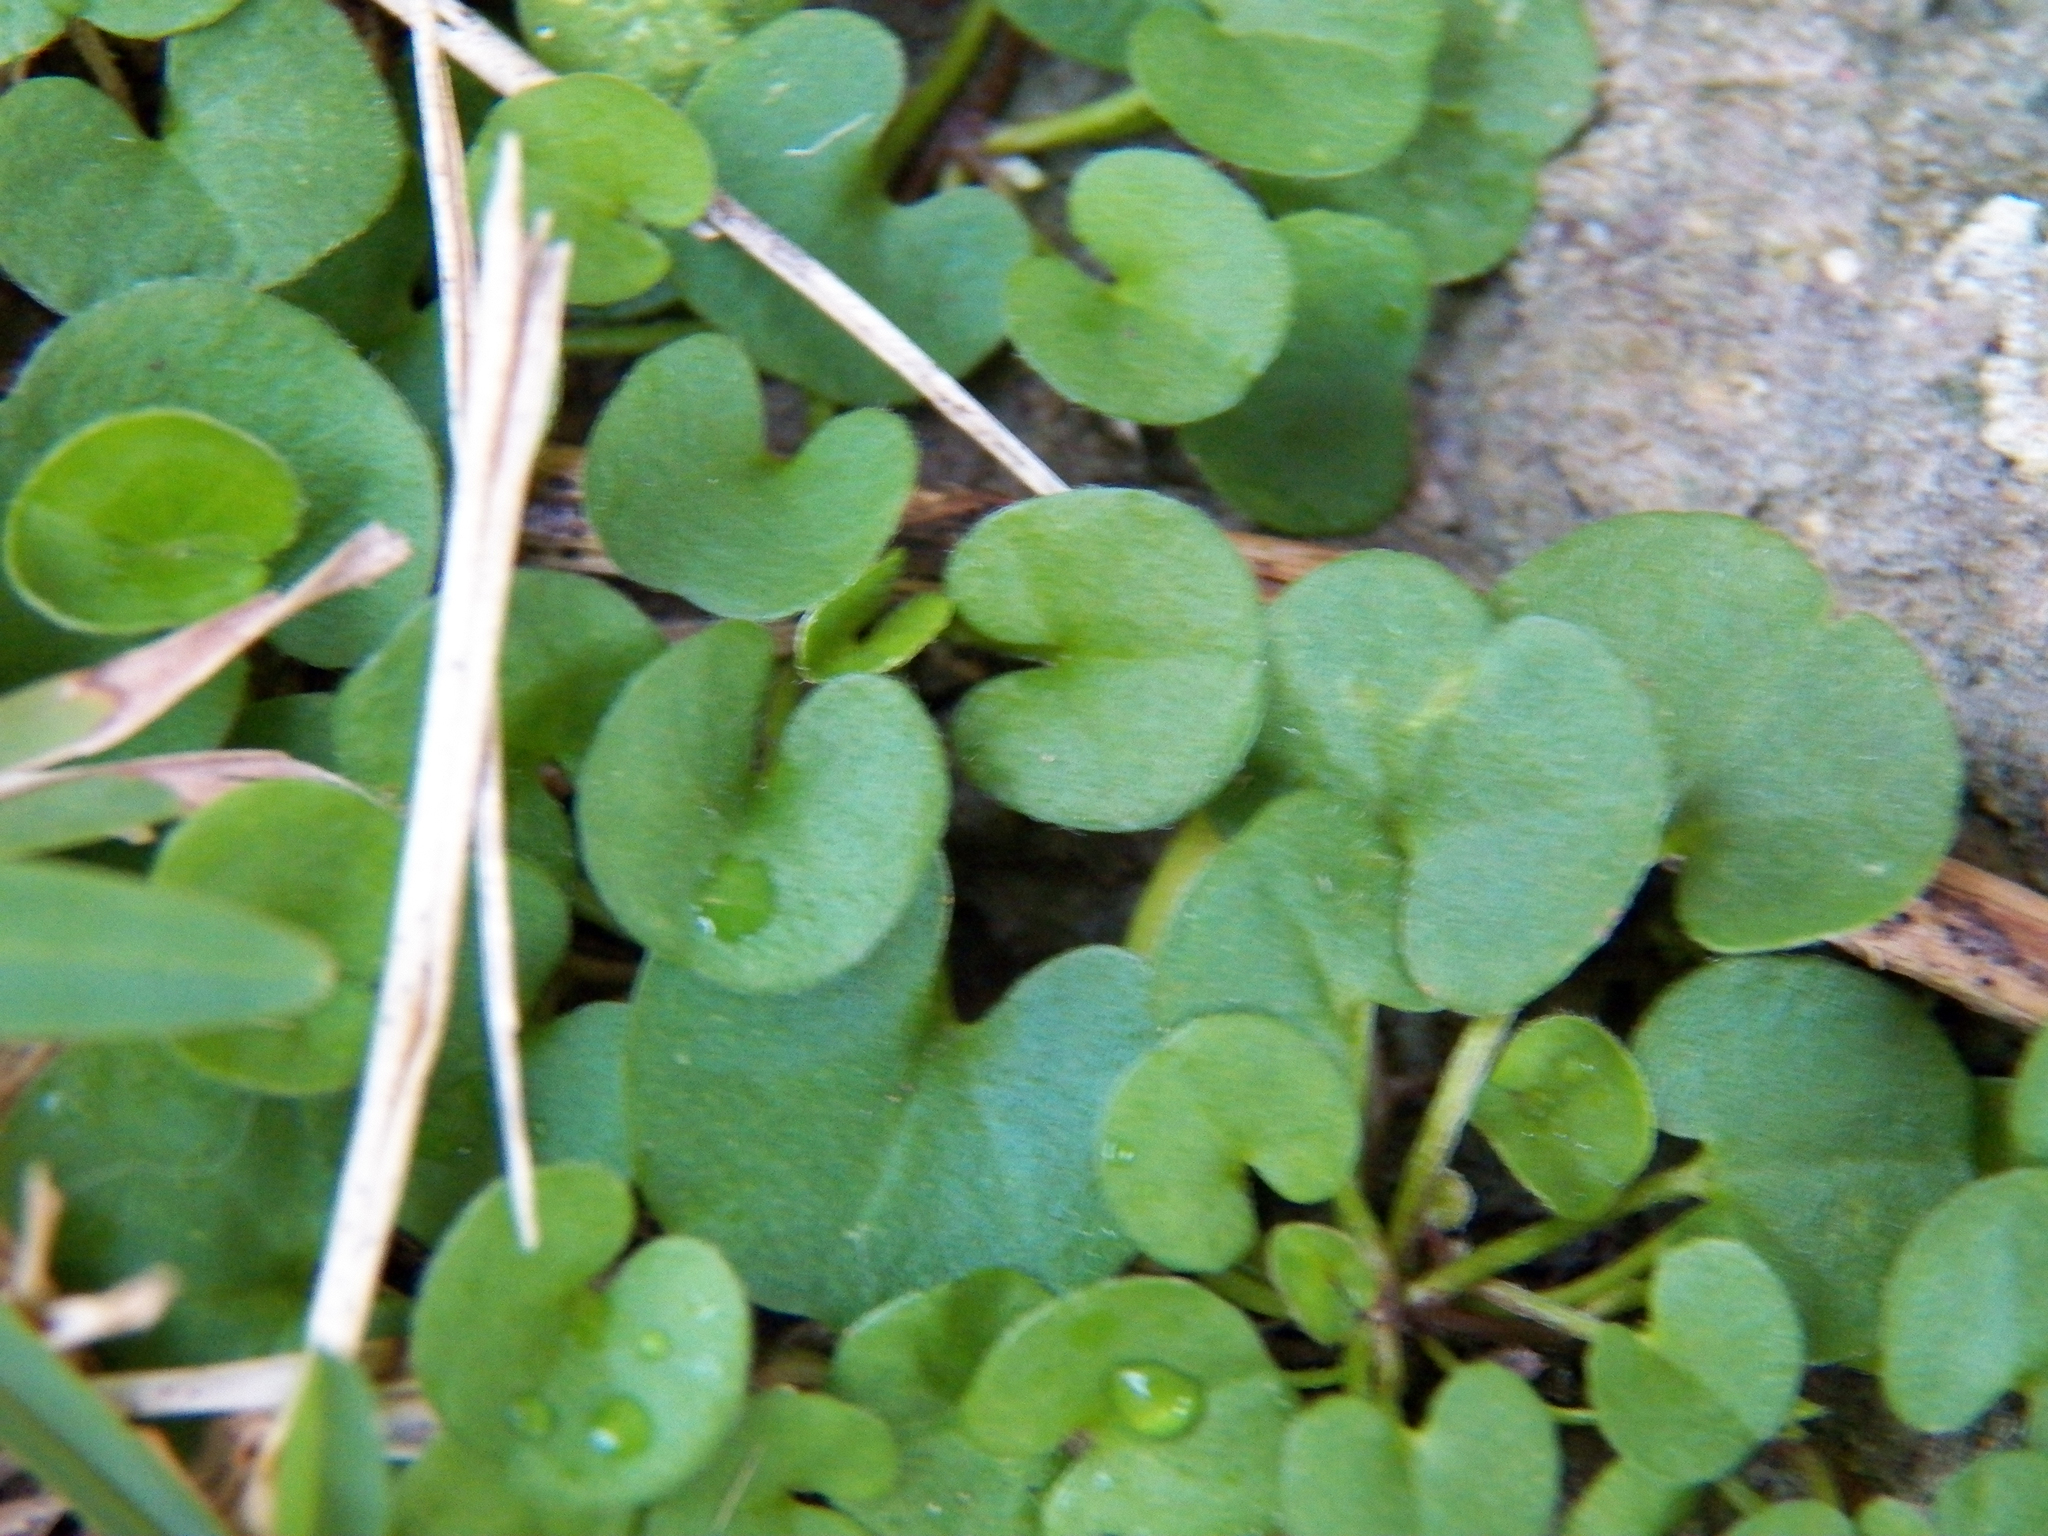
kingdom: Plantae
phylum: Tracheophyta
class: Magnoliopsida
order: Solanales
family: Convolvulaceae
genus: Dichondra
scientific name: Dichondra carolinensis
